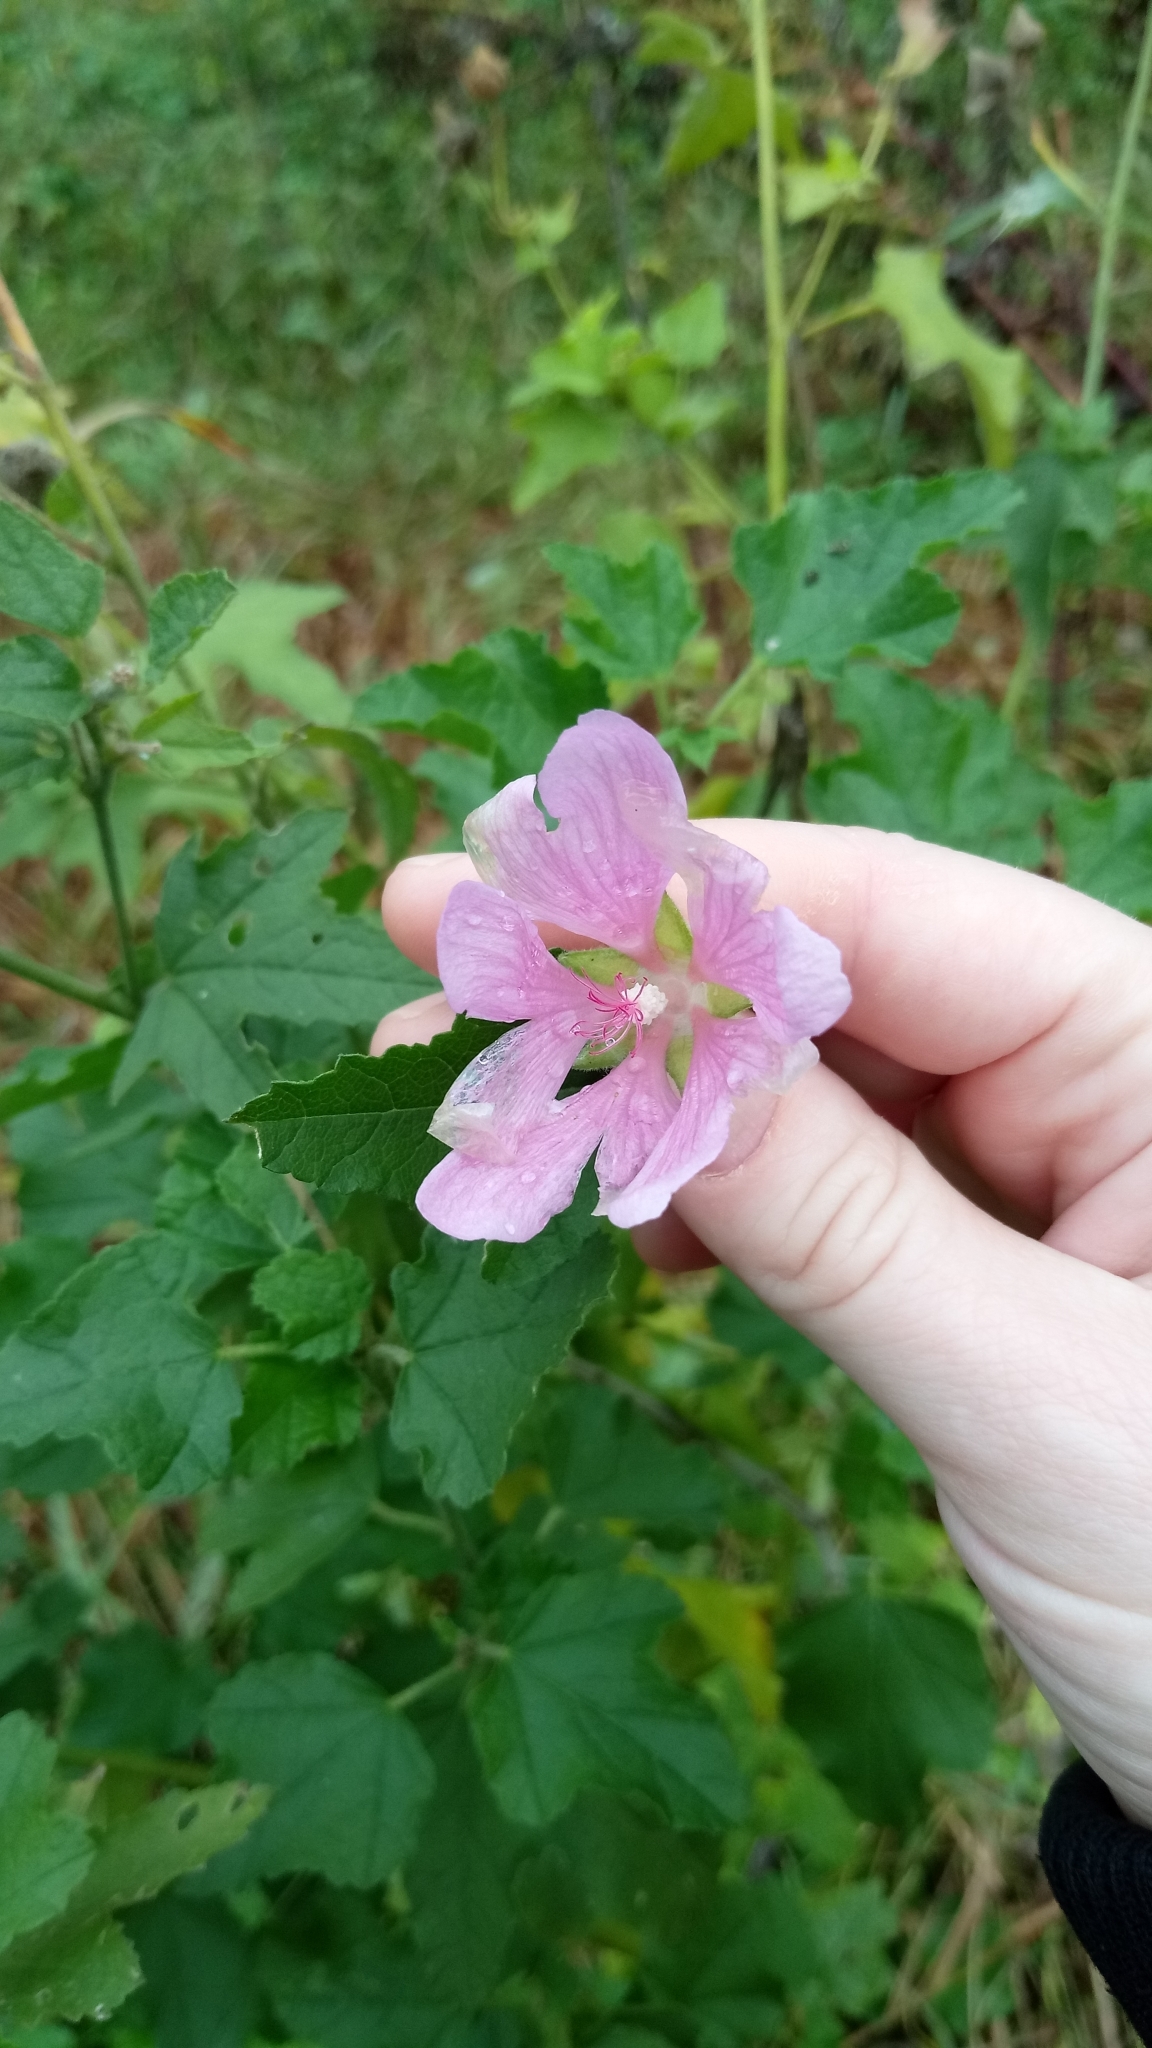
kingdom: Plantae
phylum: Tracheophyta
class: Magnoliopsida
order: Malvales
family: Malvaceae
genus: Malva
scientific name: Malva thuringiaca
